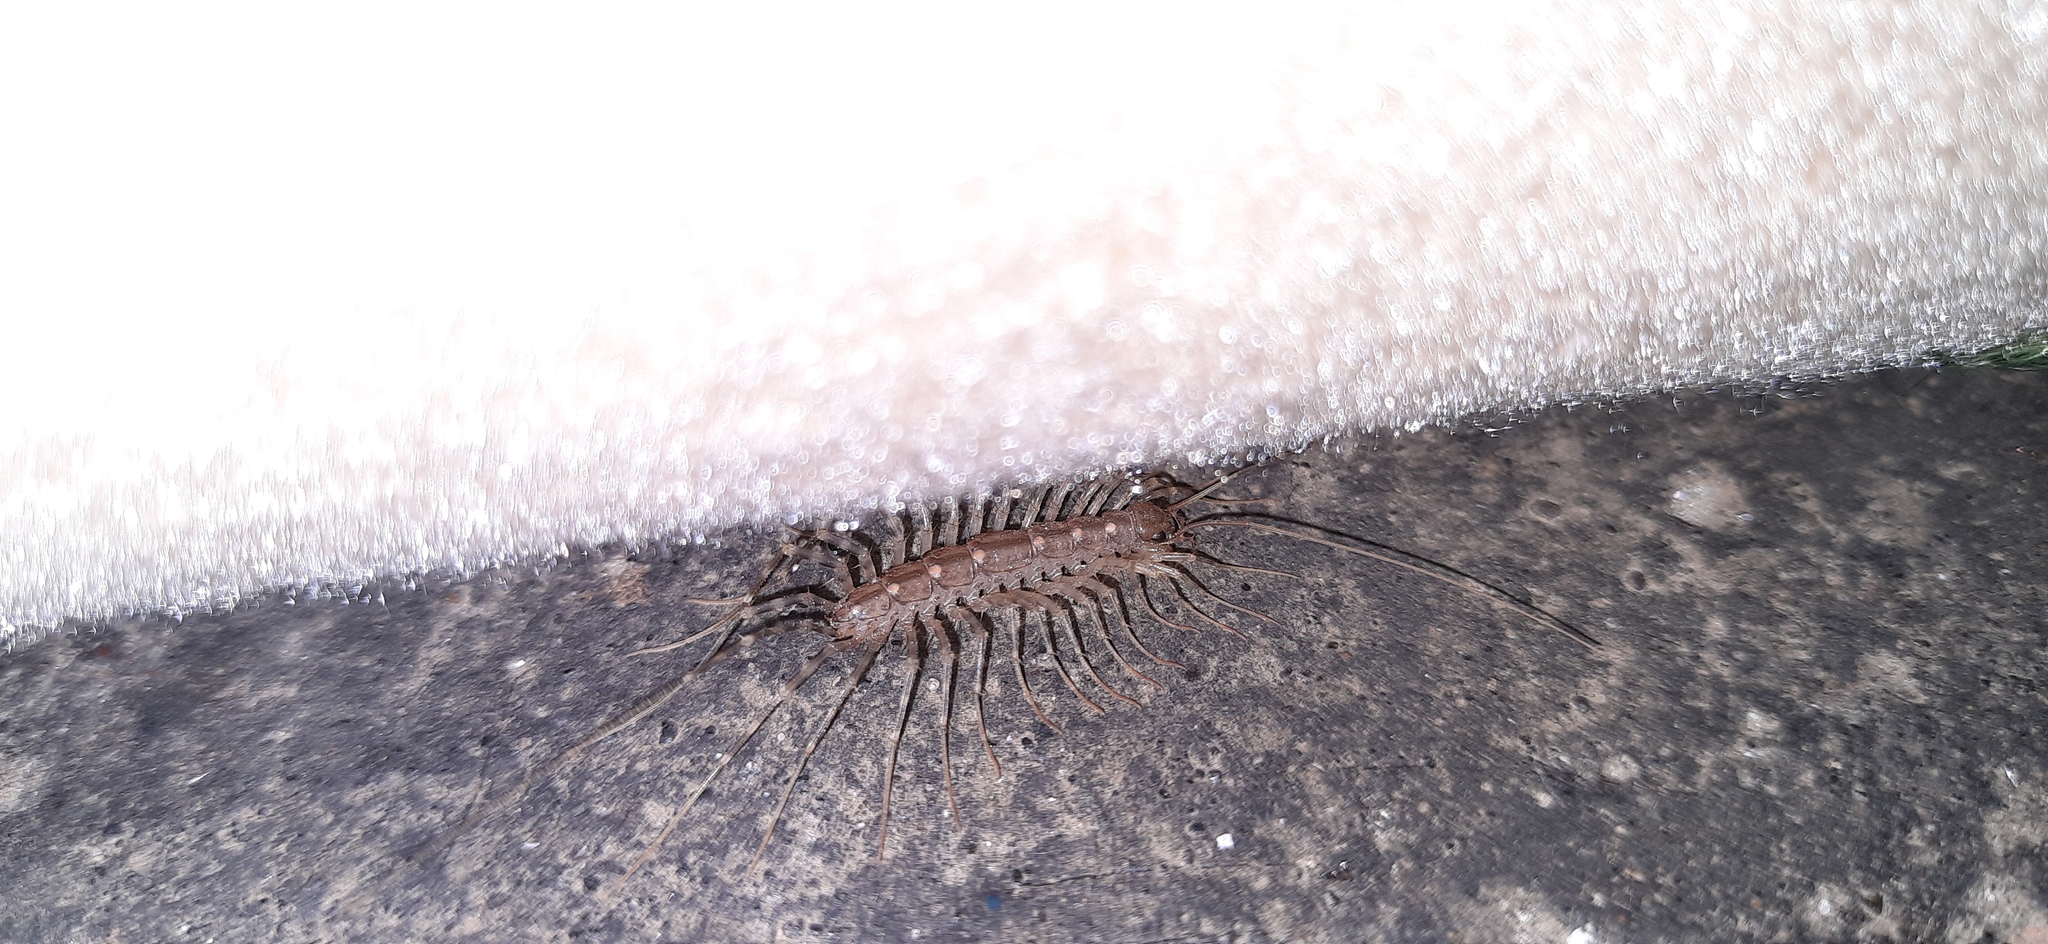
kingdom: Animalia
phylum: Arthropoda
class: Chilopoda
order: Scutigeromorpha
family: Scutigeridae
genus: Scutigera
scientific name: Scutigera coleoptrata
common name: House centipede
